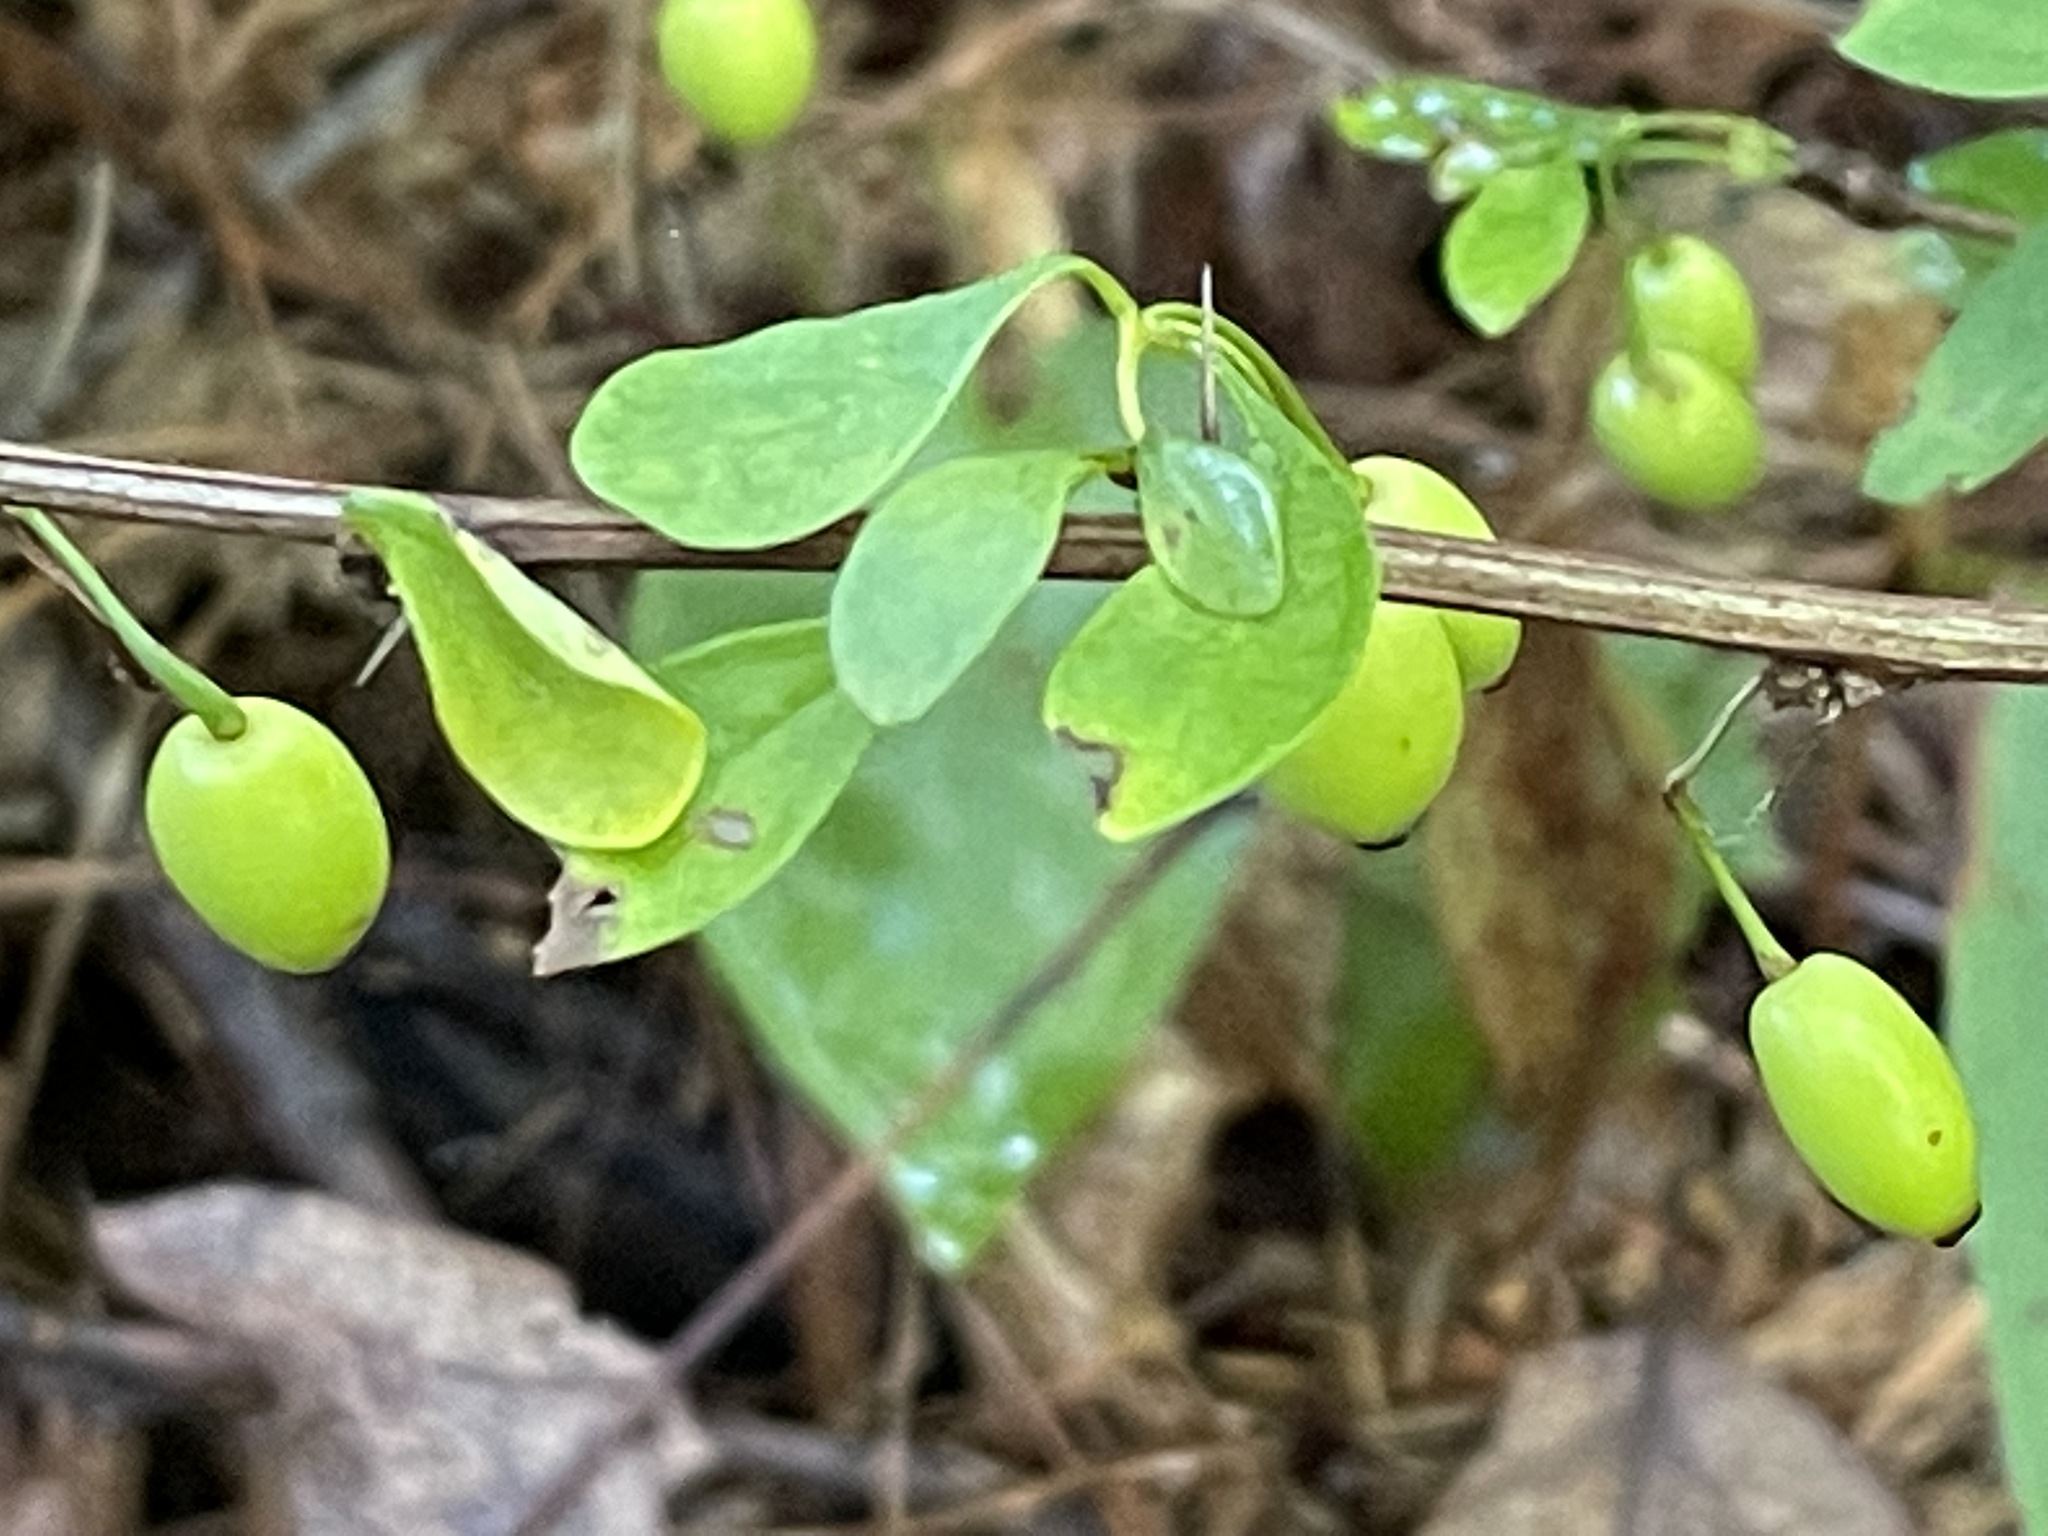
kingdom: Plantae
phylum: Tracheophyta
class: Magnoliopsida
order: Ranunculales
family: Berberidaceae
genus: Berberis
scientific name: Berberis thunbergii
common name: Japanese barberry
